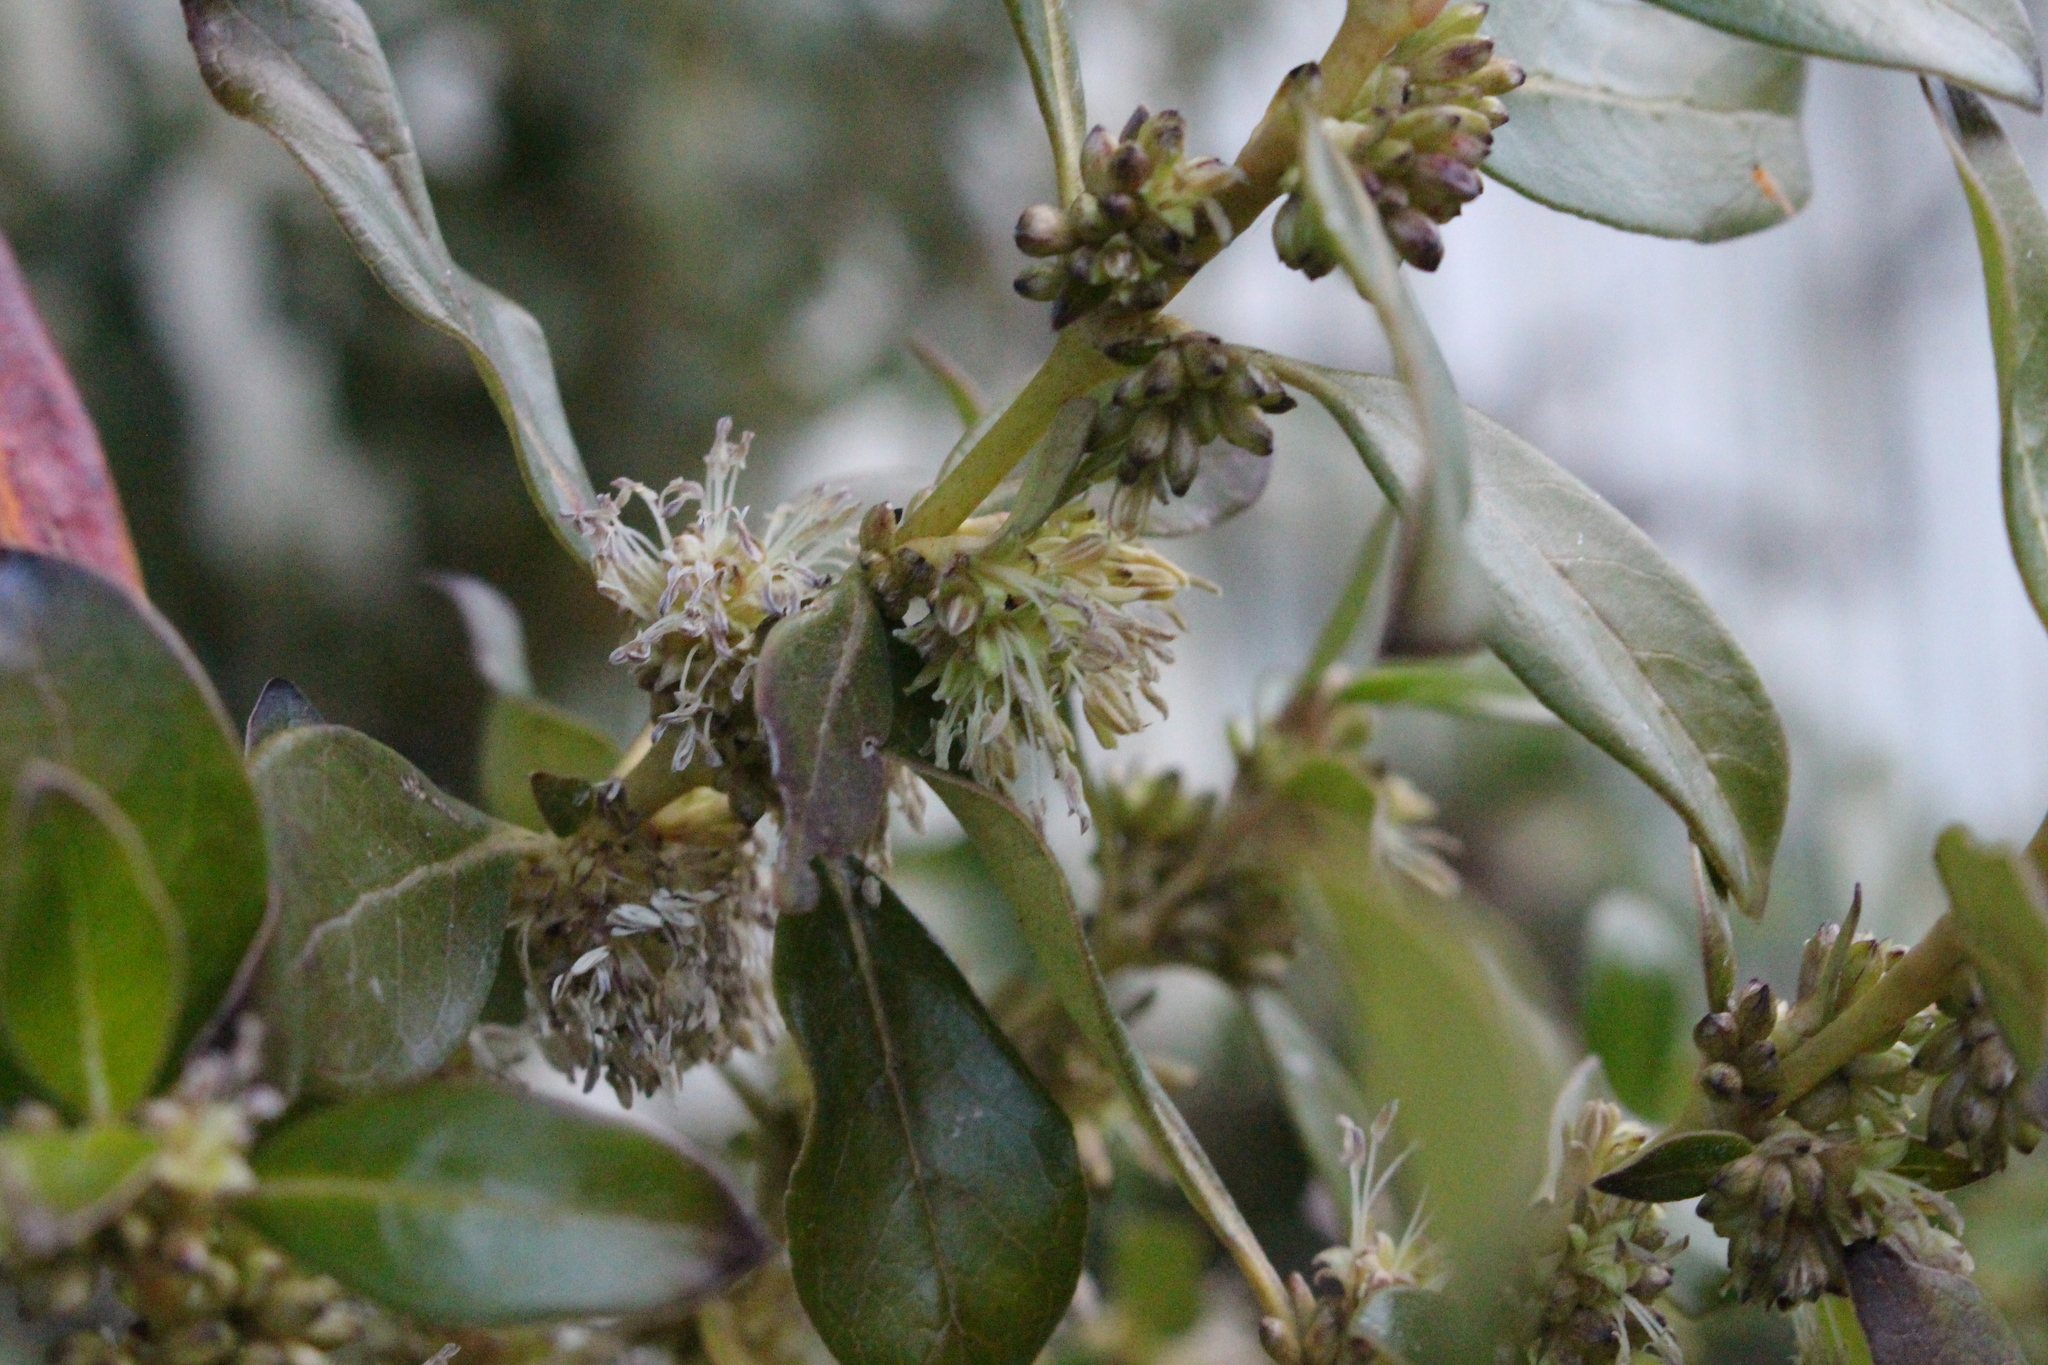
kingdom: Plantae
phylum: Tracheophyta
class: Magnoliopsida
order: Gentianales
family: Rubiaceae
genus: Coprosma
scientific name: Coprosma robusta
